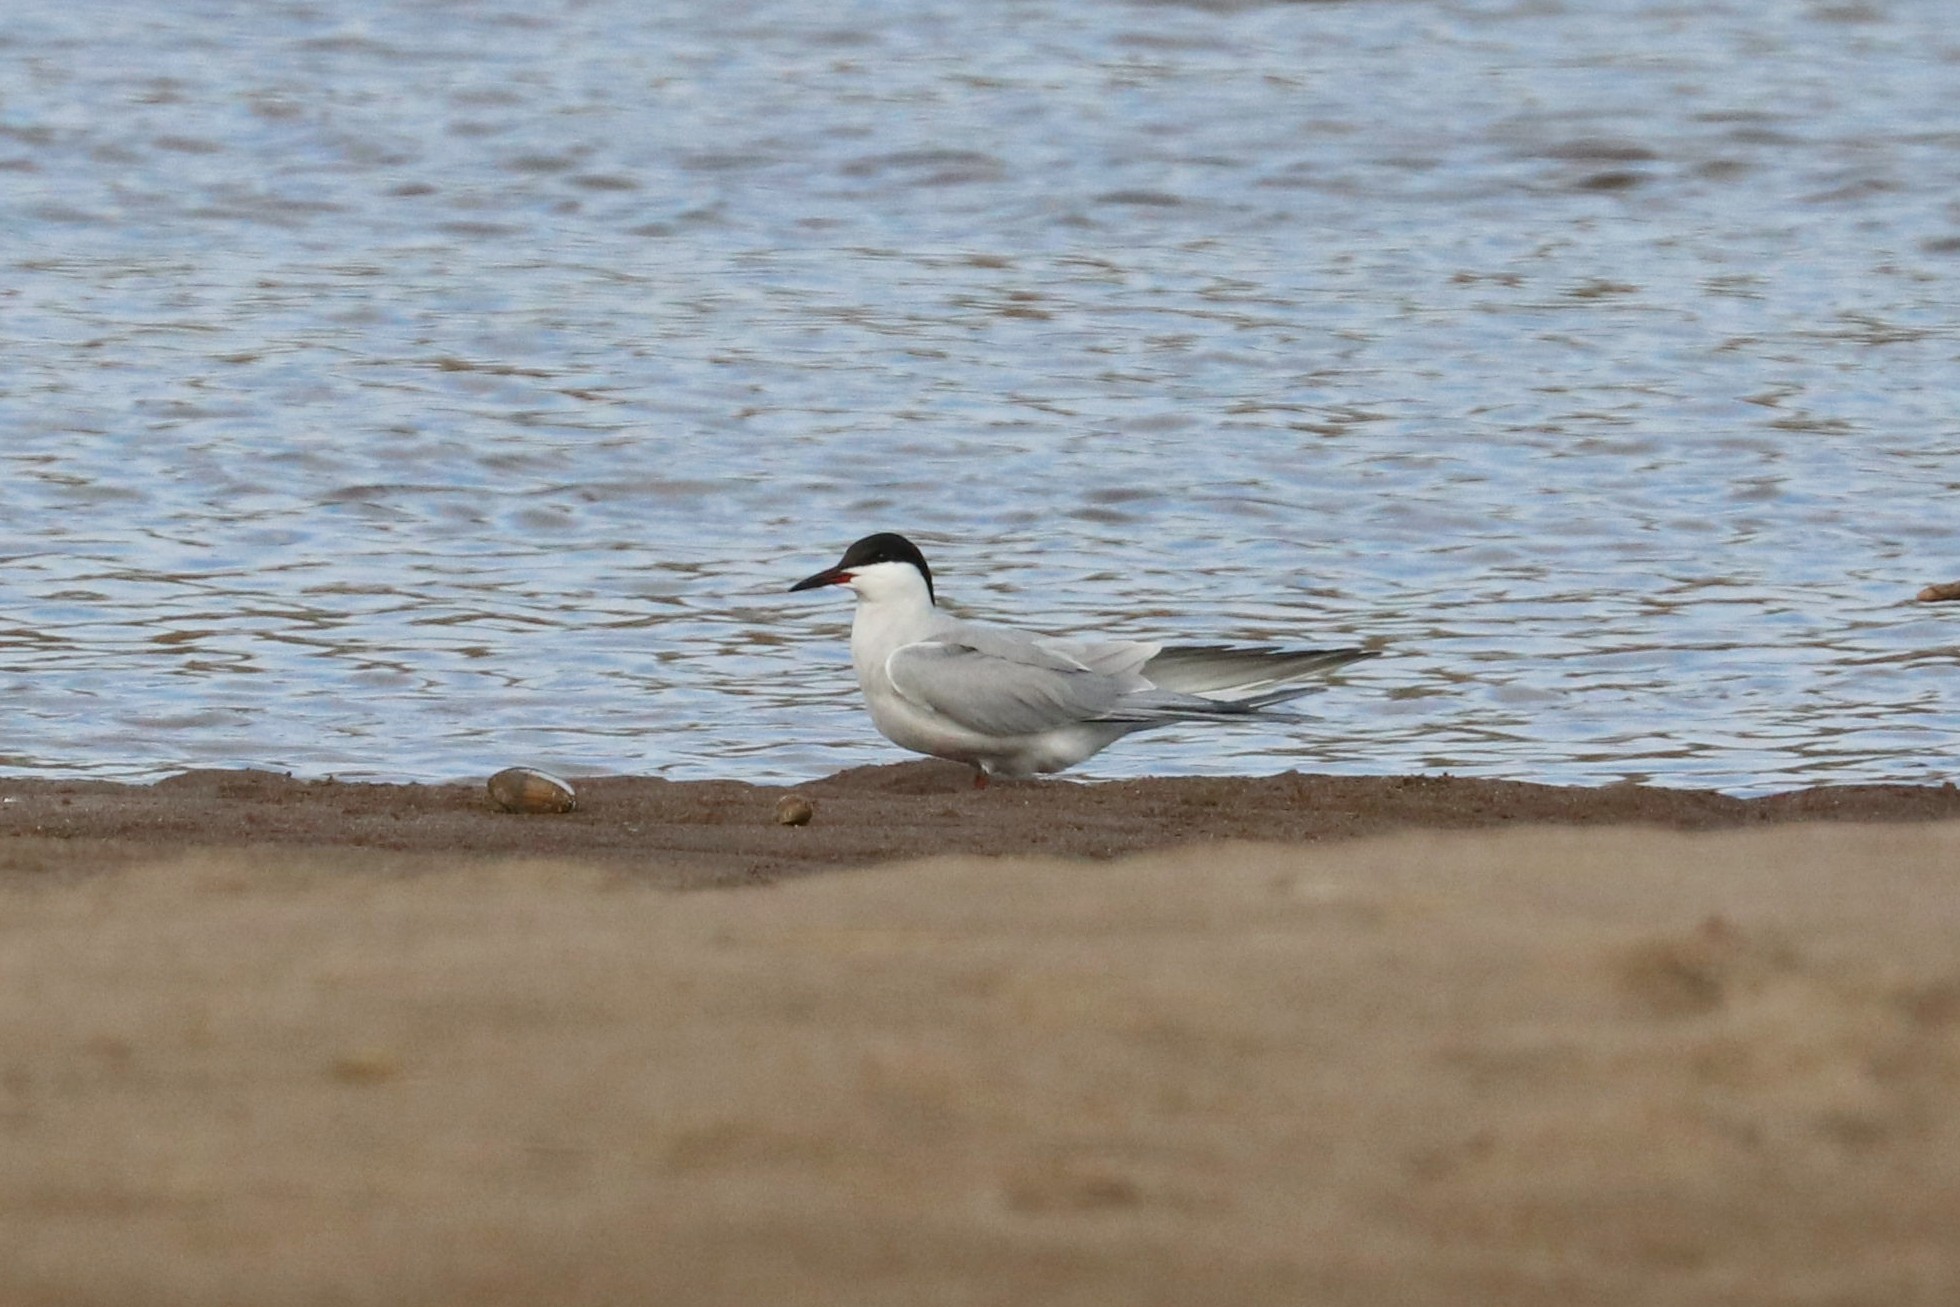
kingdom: Animalia
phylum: Chordata
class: Aves
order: Charadriiformes
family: Laridae
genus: Sterna
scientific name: Sterna hirundo
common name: Common tern
